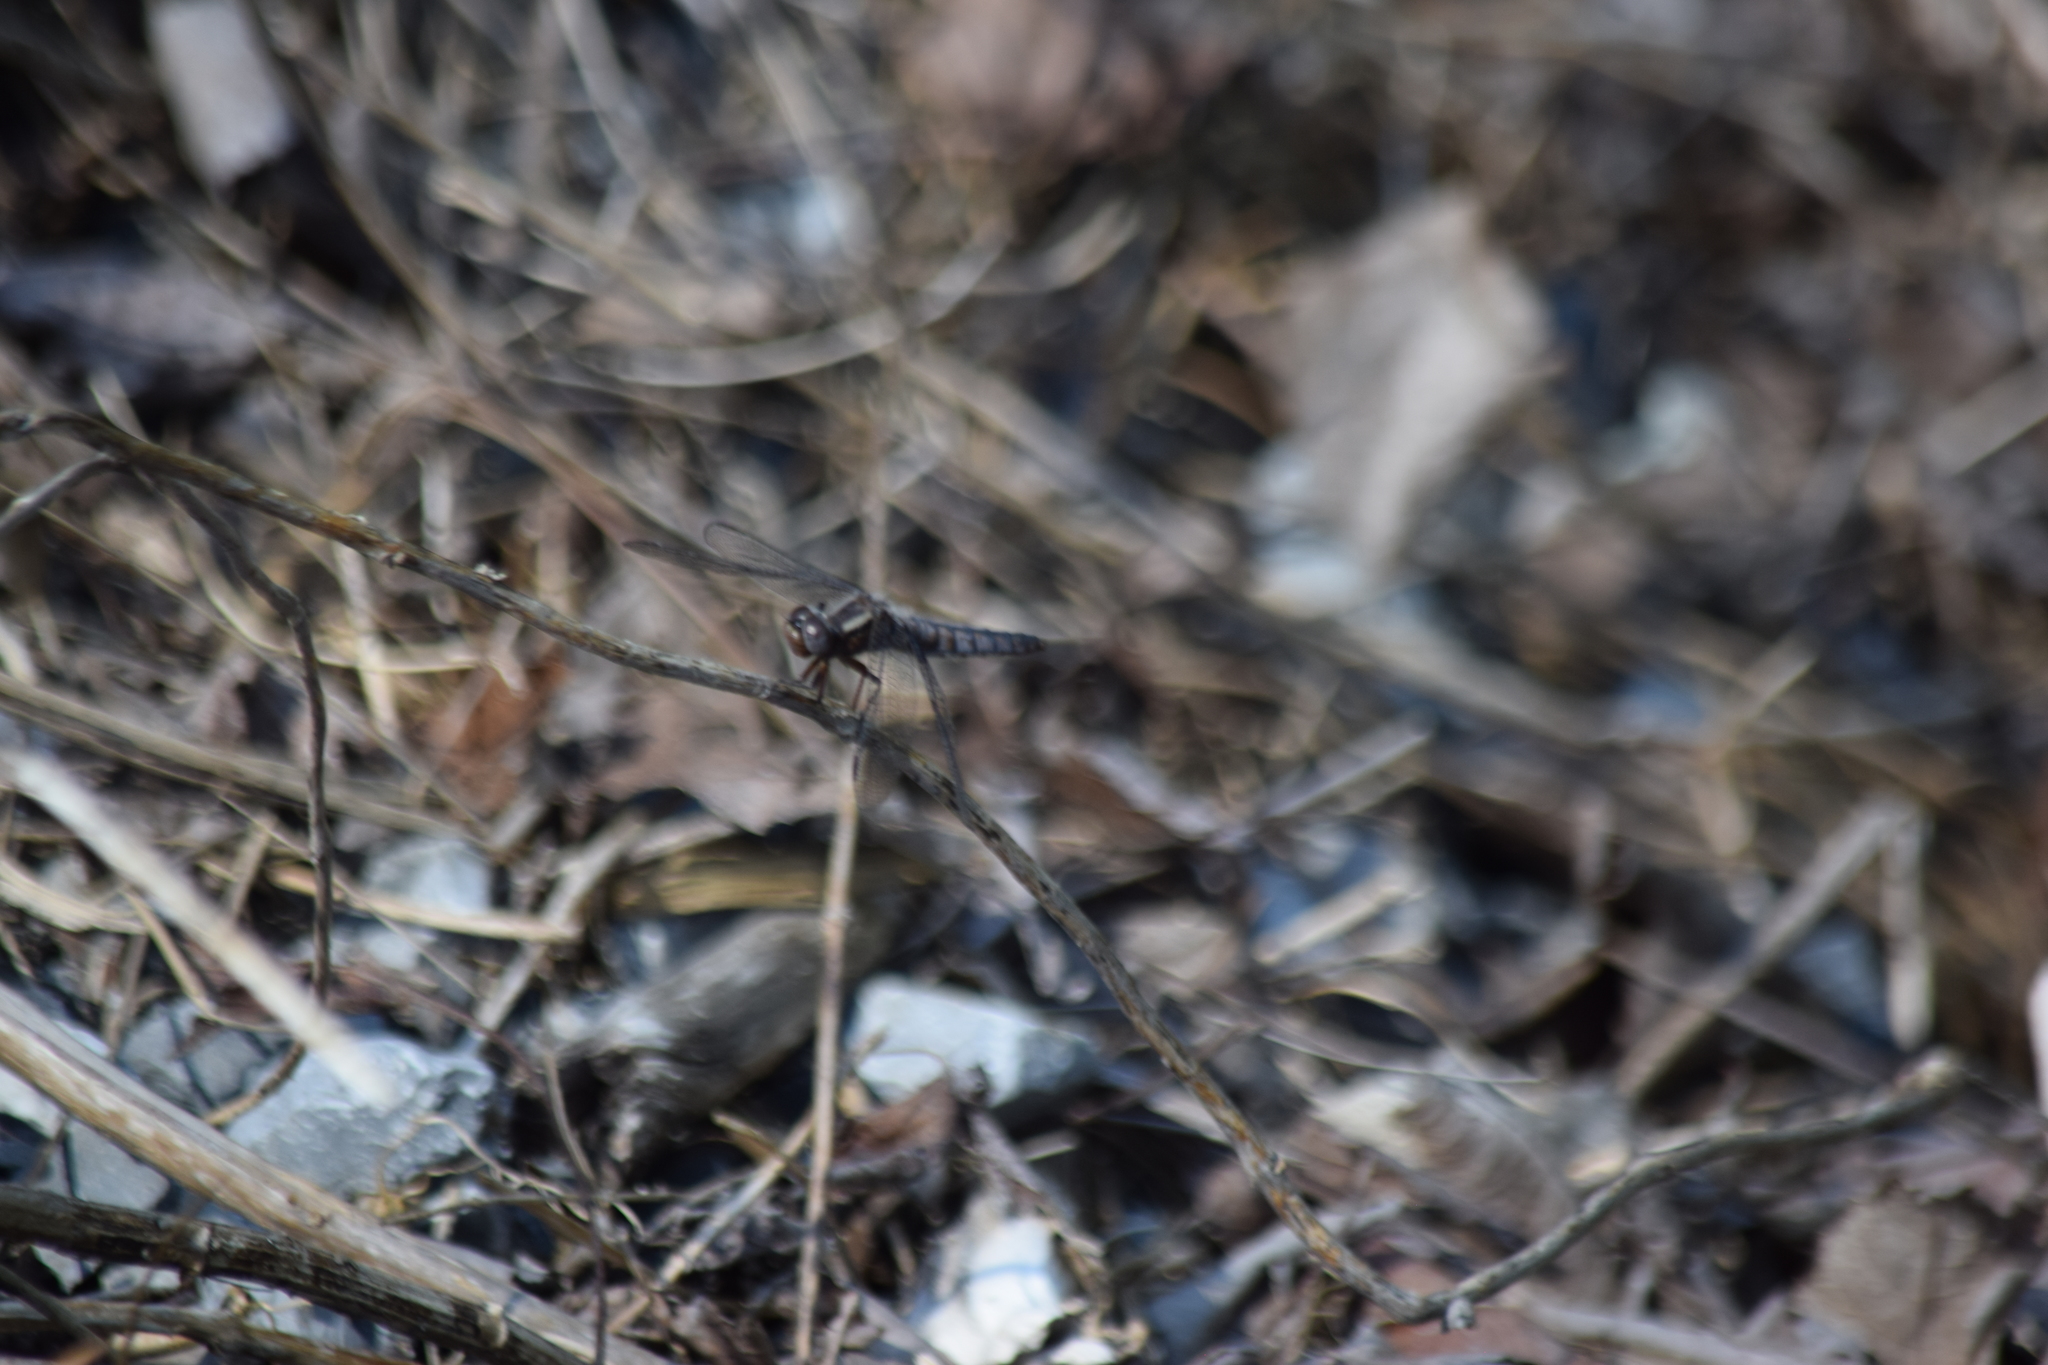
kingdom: Animalia
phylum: Arthropoda
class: Insecta
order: Odonata
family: Libellulidae
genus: Ladona
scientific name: Ladona deplanata
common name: Blue corporal
